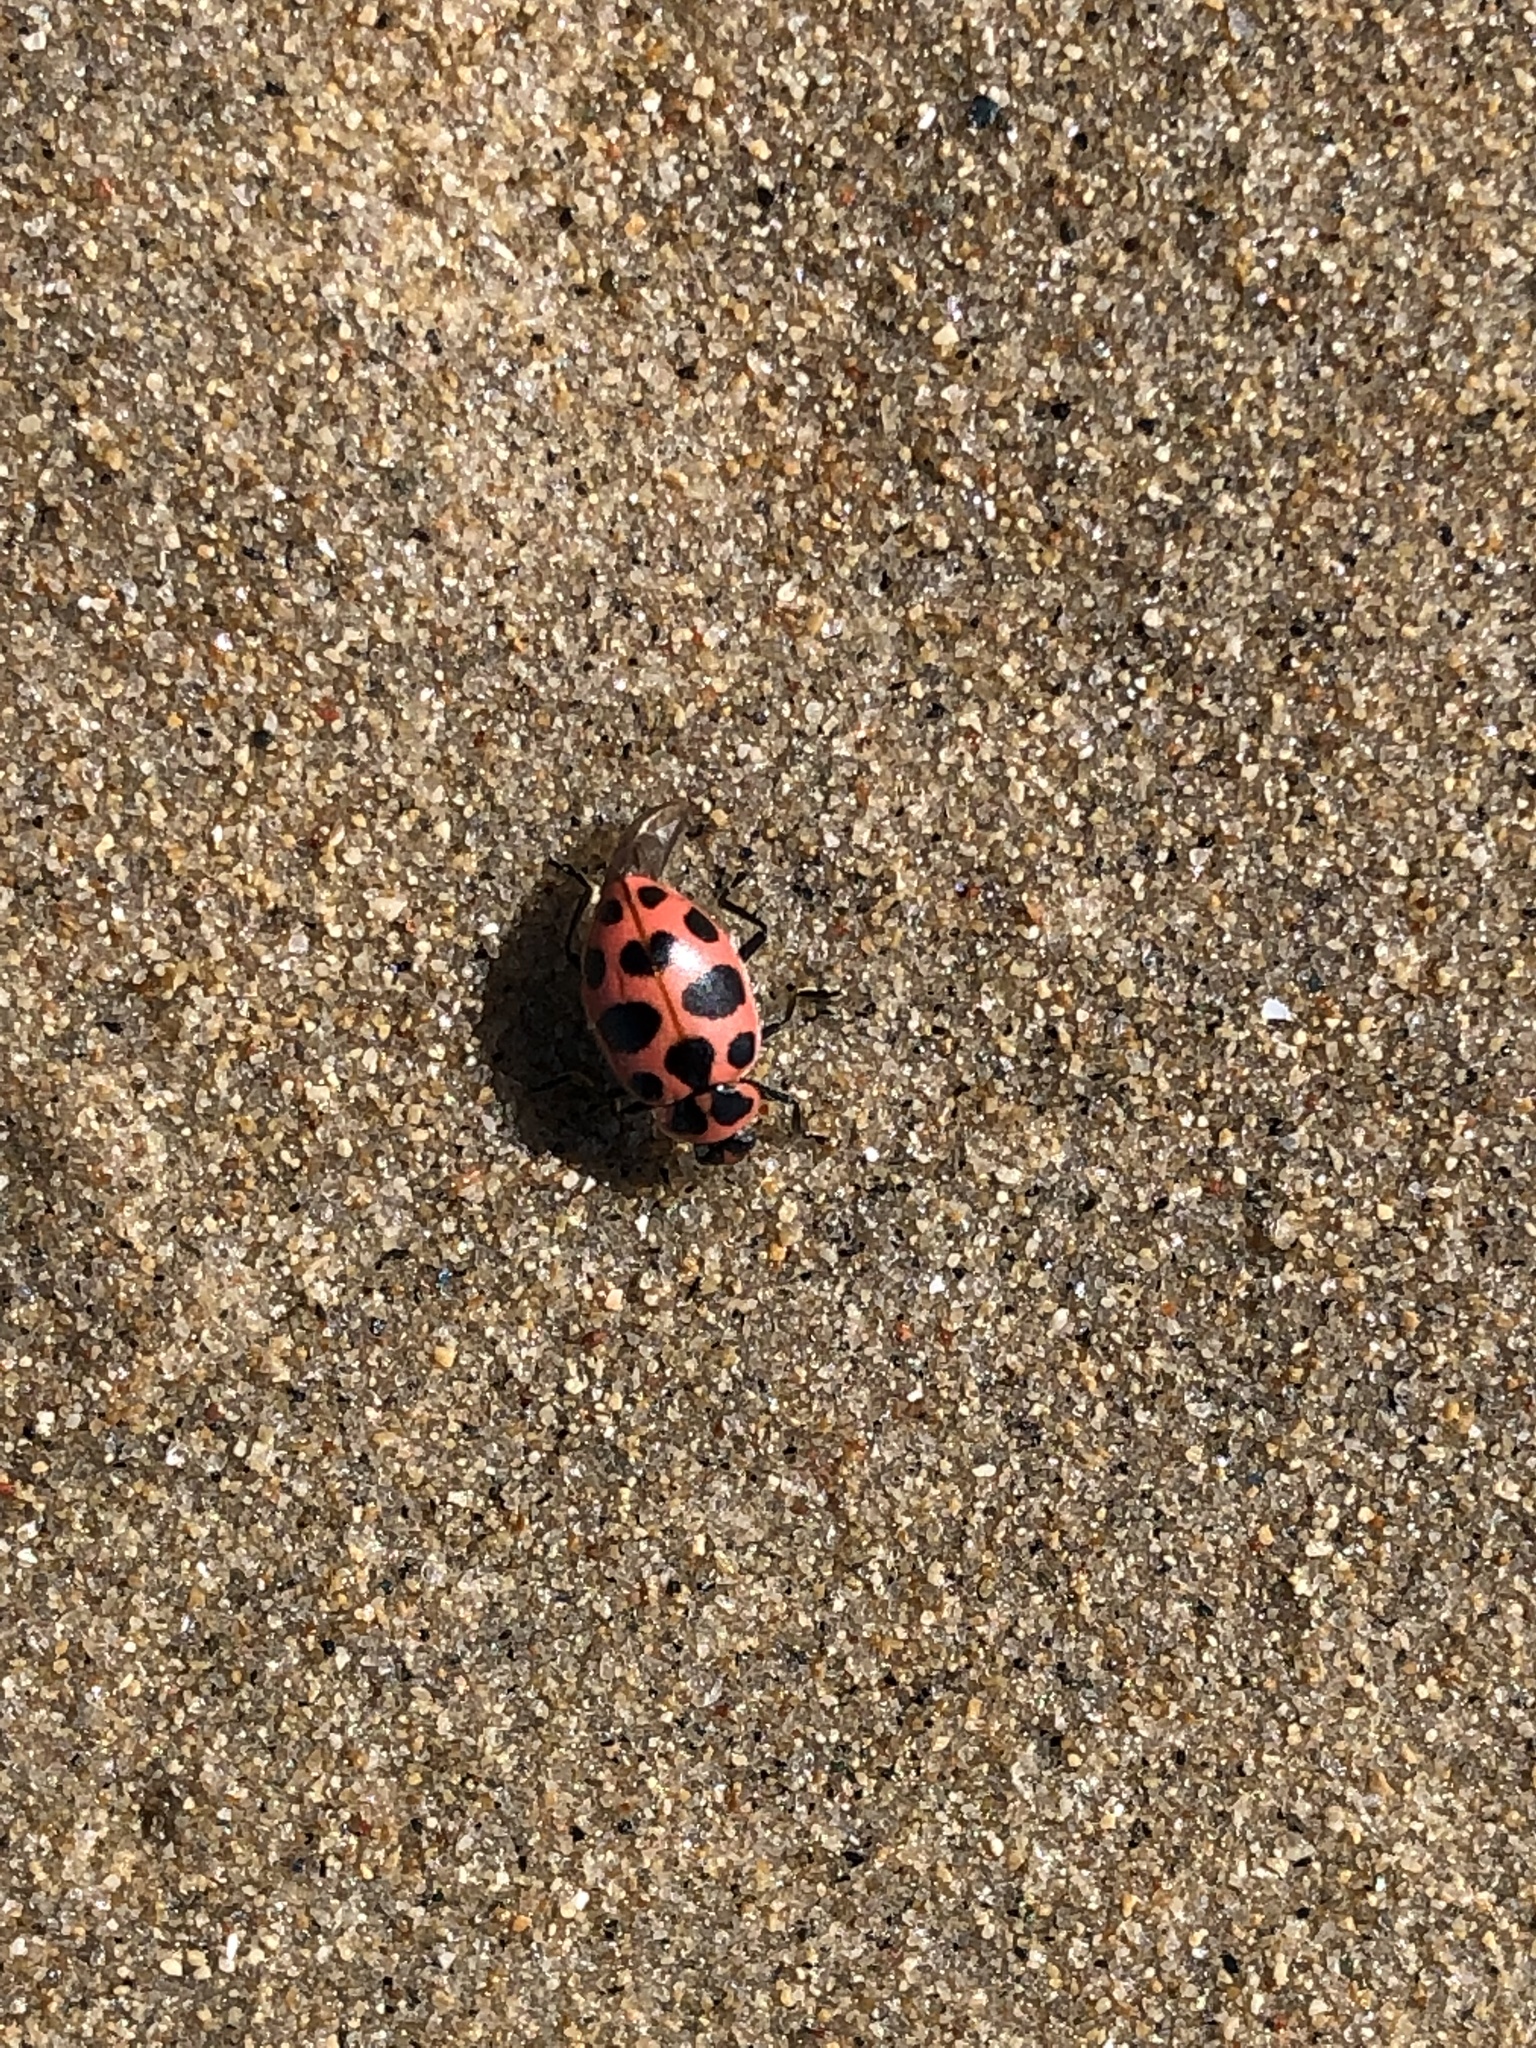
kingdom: Animalia
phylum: Arthropoda
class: Insecta
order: Coleoptera
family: Coccinellidae
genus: Coleomegilla
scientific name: Coleomegilla maculata
